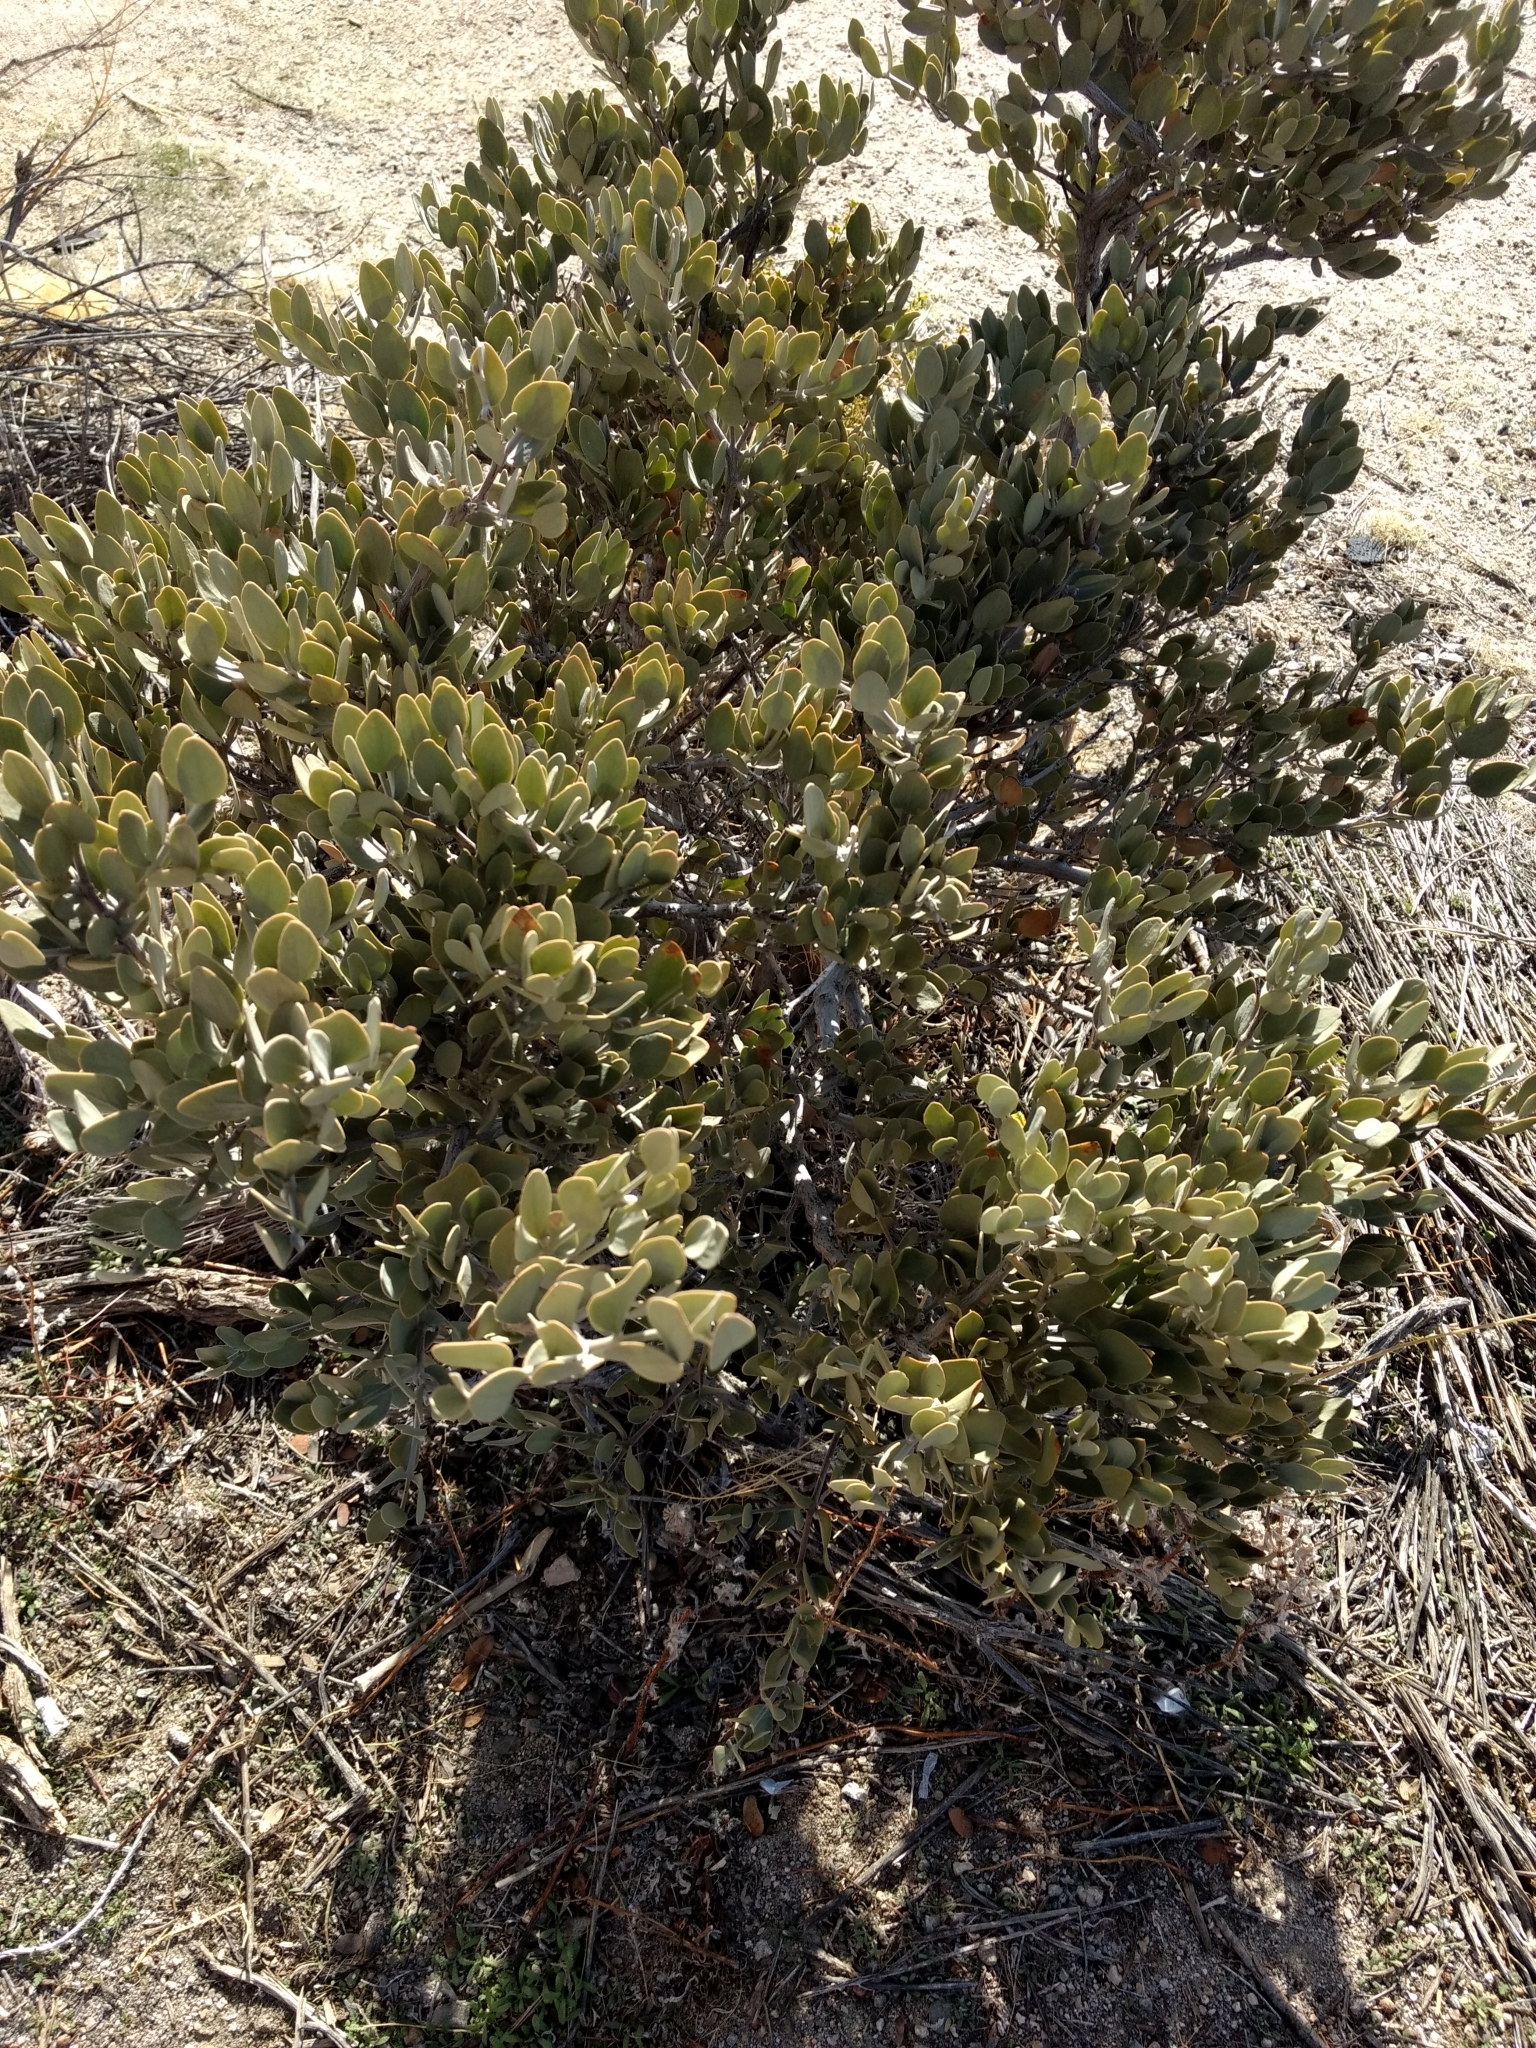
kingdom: Plantae
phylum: Tracheophyta
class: Magnoliopsida
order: Caryophyllales
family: Simmondsiaceae
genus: Simmondsia
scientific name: Simmondsia chinensis
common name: Jojoba
